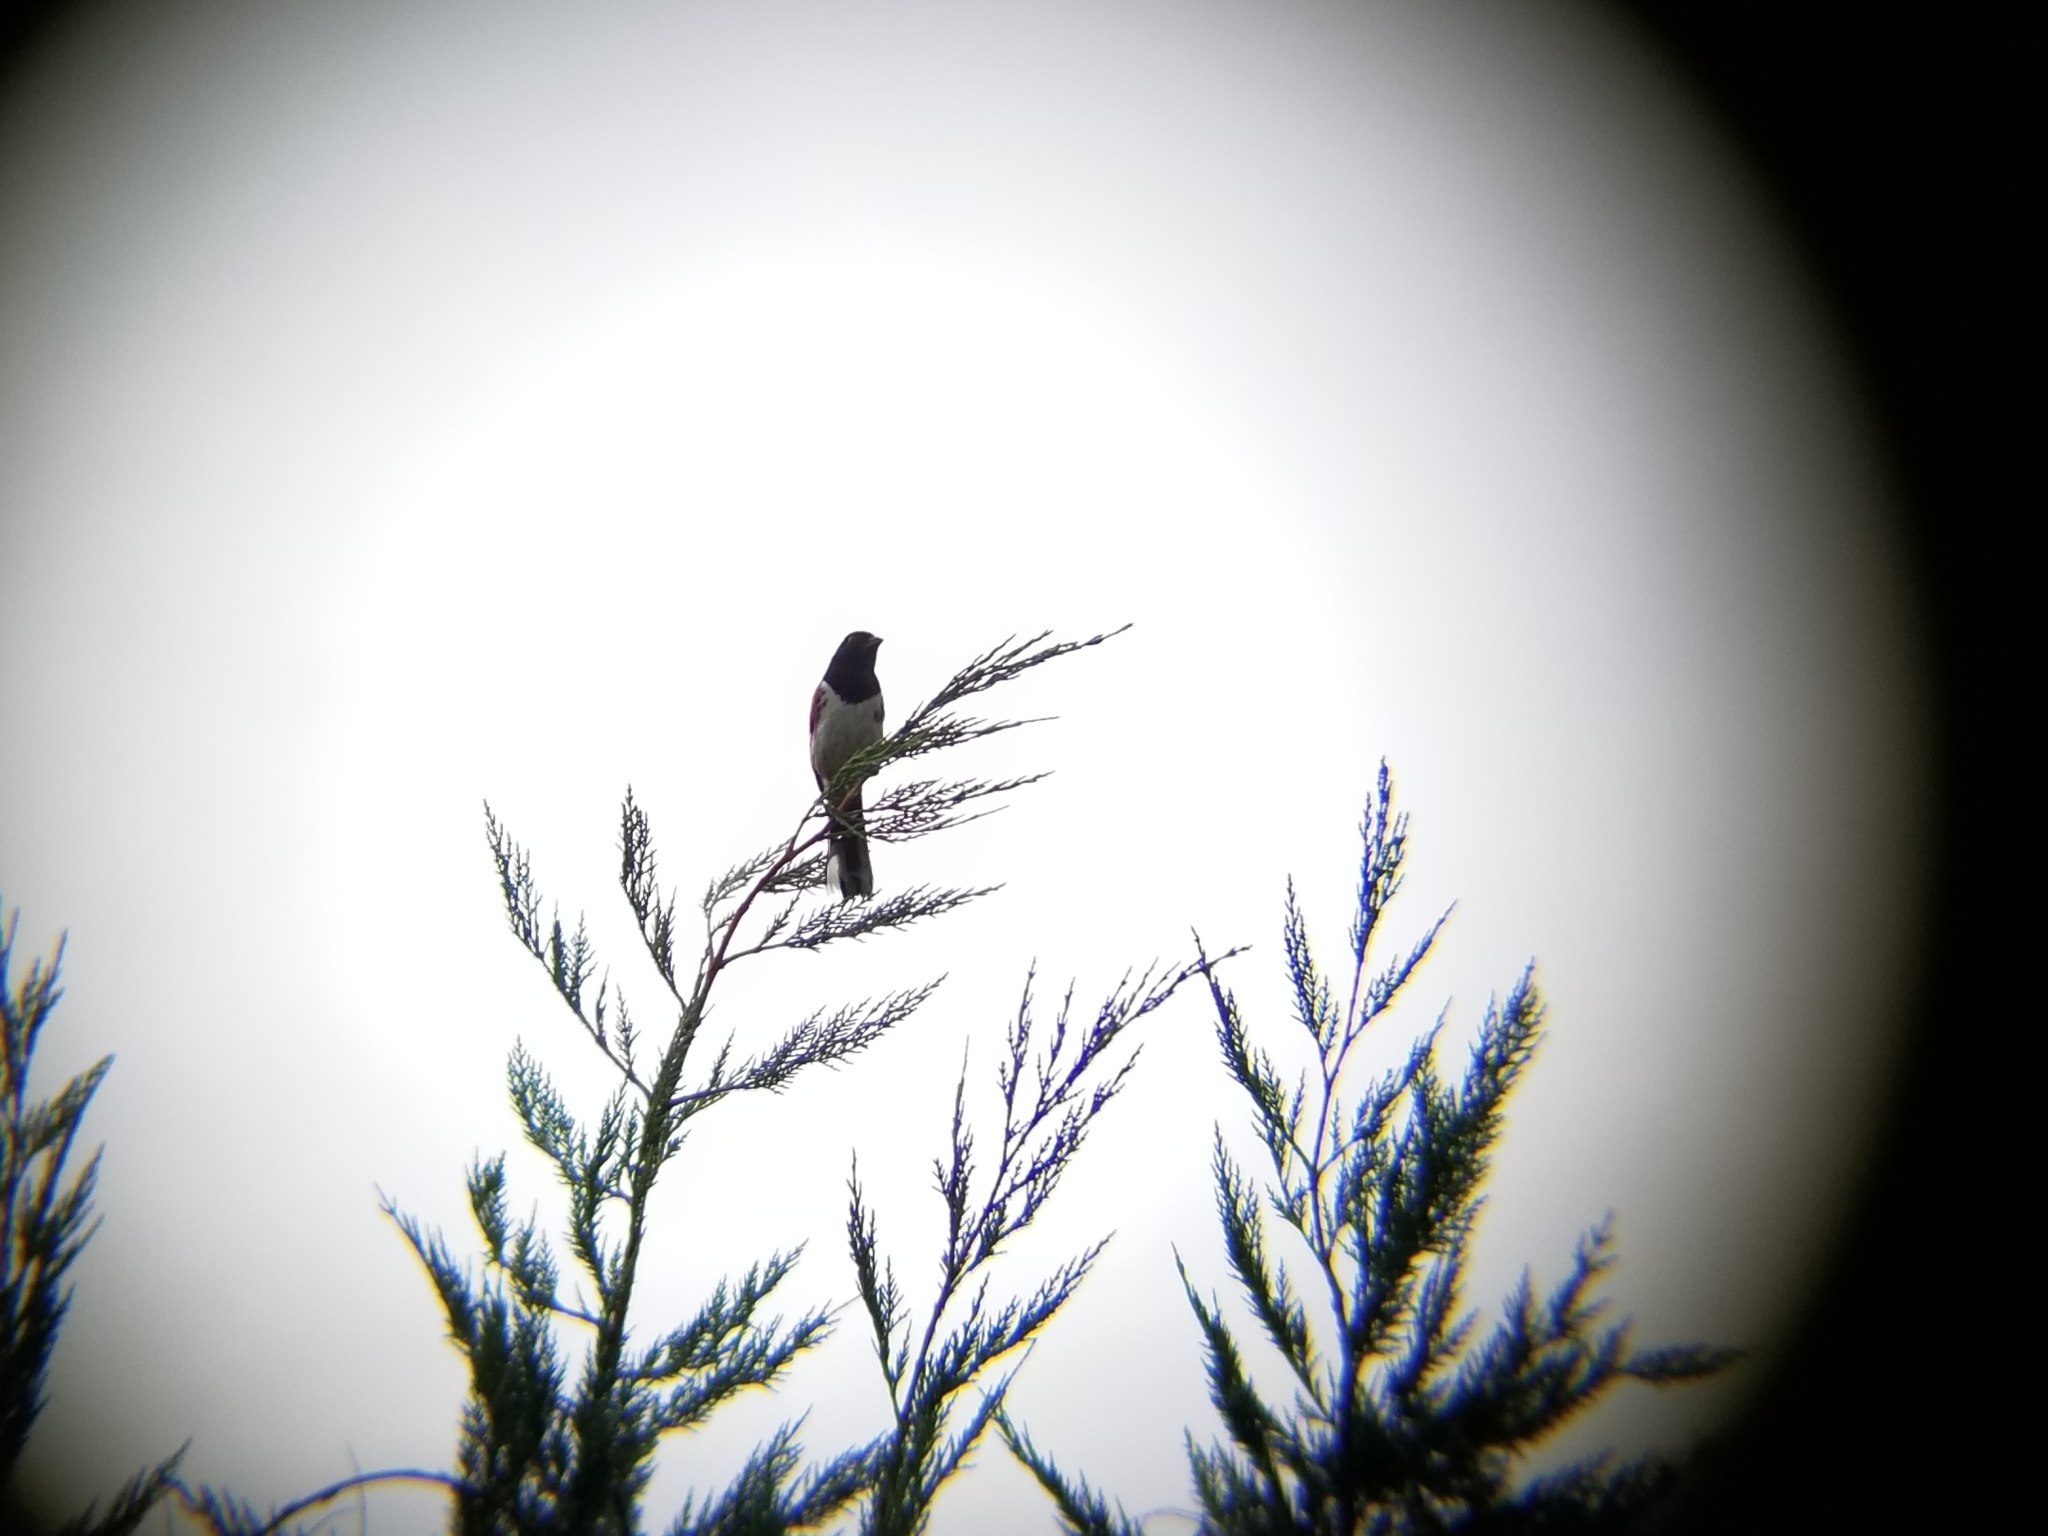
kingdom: Animalia
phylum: Chordata
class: Aves
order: Passeriformes
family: Passerellidae
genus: Pipilo
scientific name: Pipilo erythrophthalmus
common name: Eastern towhee
